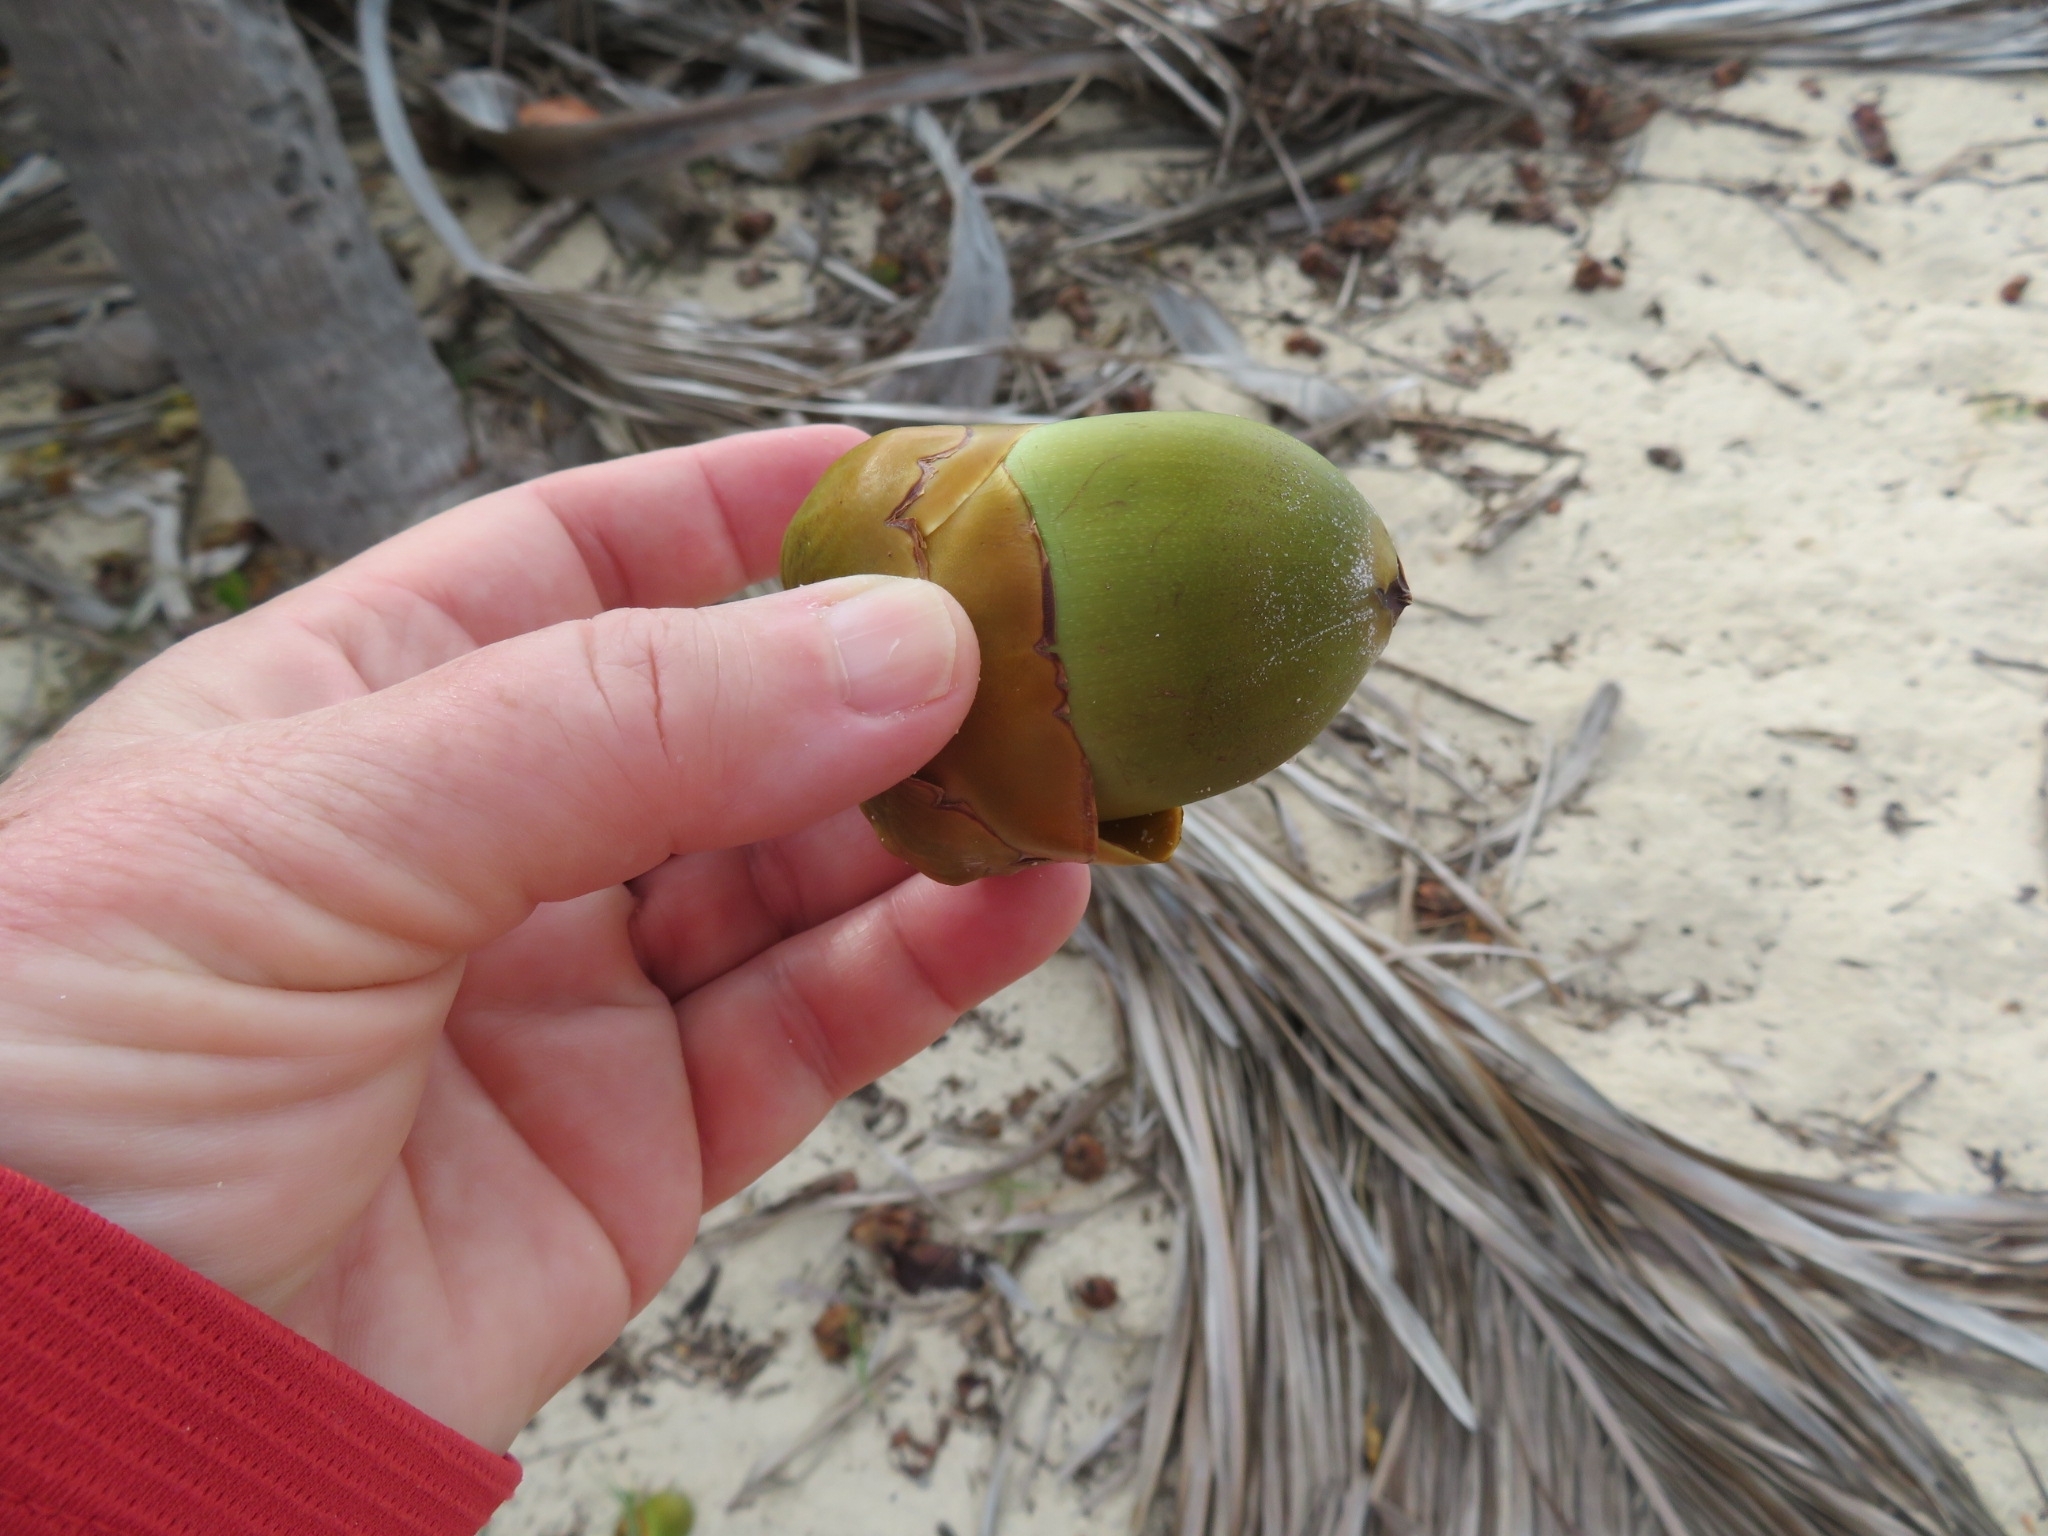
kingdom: Plantae
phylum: Tracheophyta
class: Liliopsida
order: Arecales
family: Arecaceae
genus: Cocos
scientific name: Cocos nucifera
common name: Coconut palm
